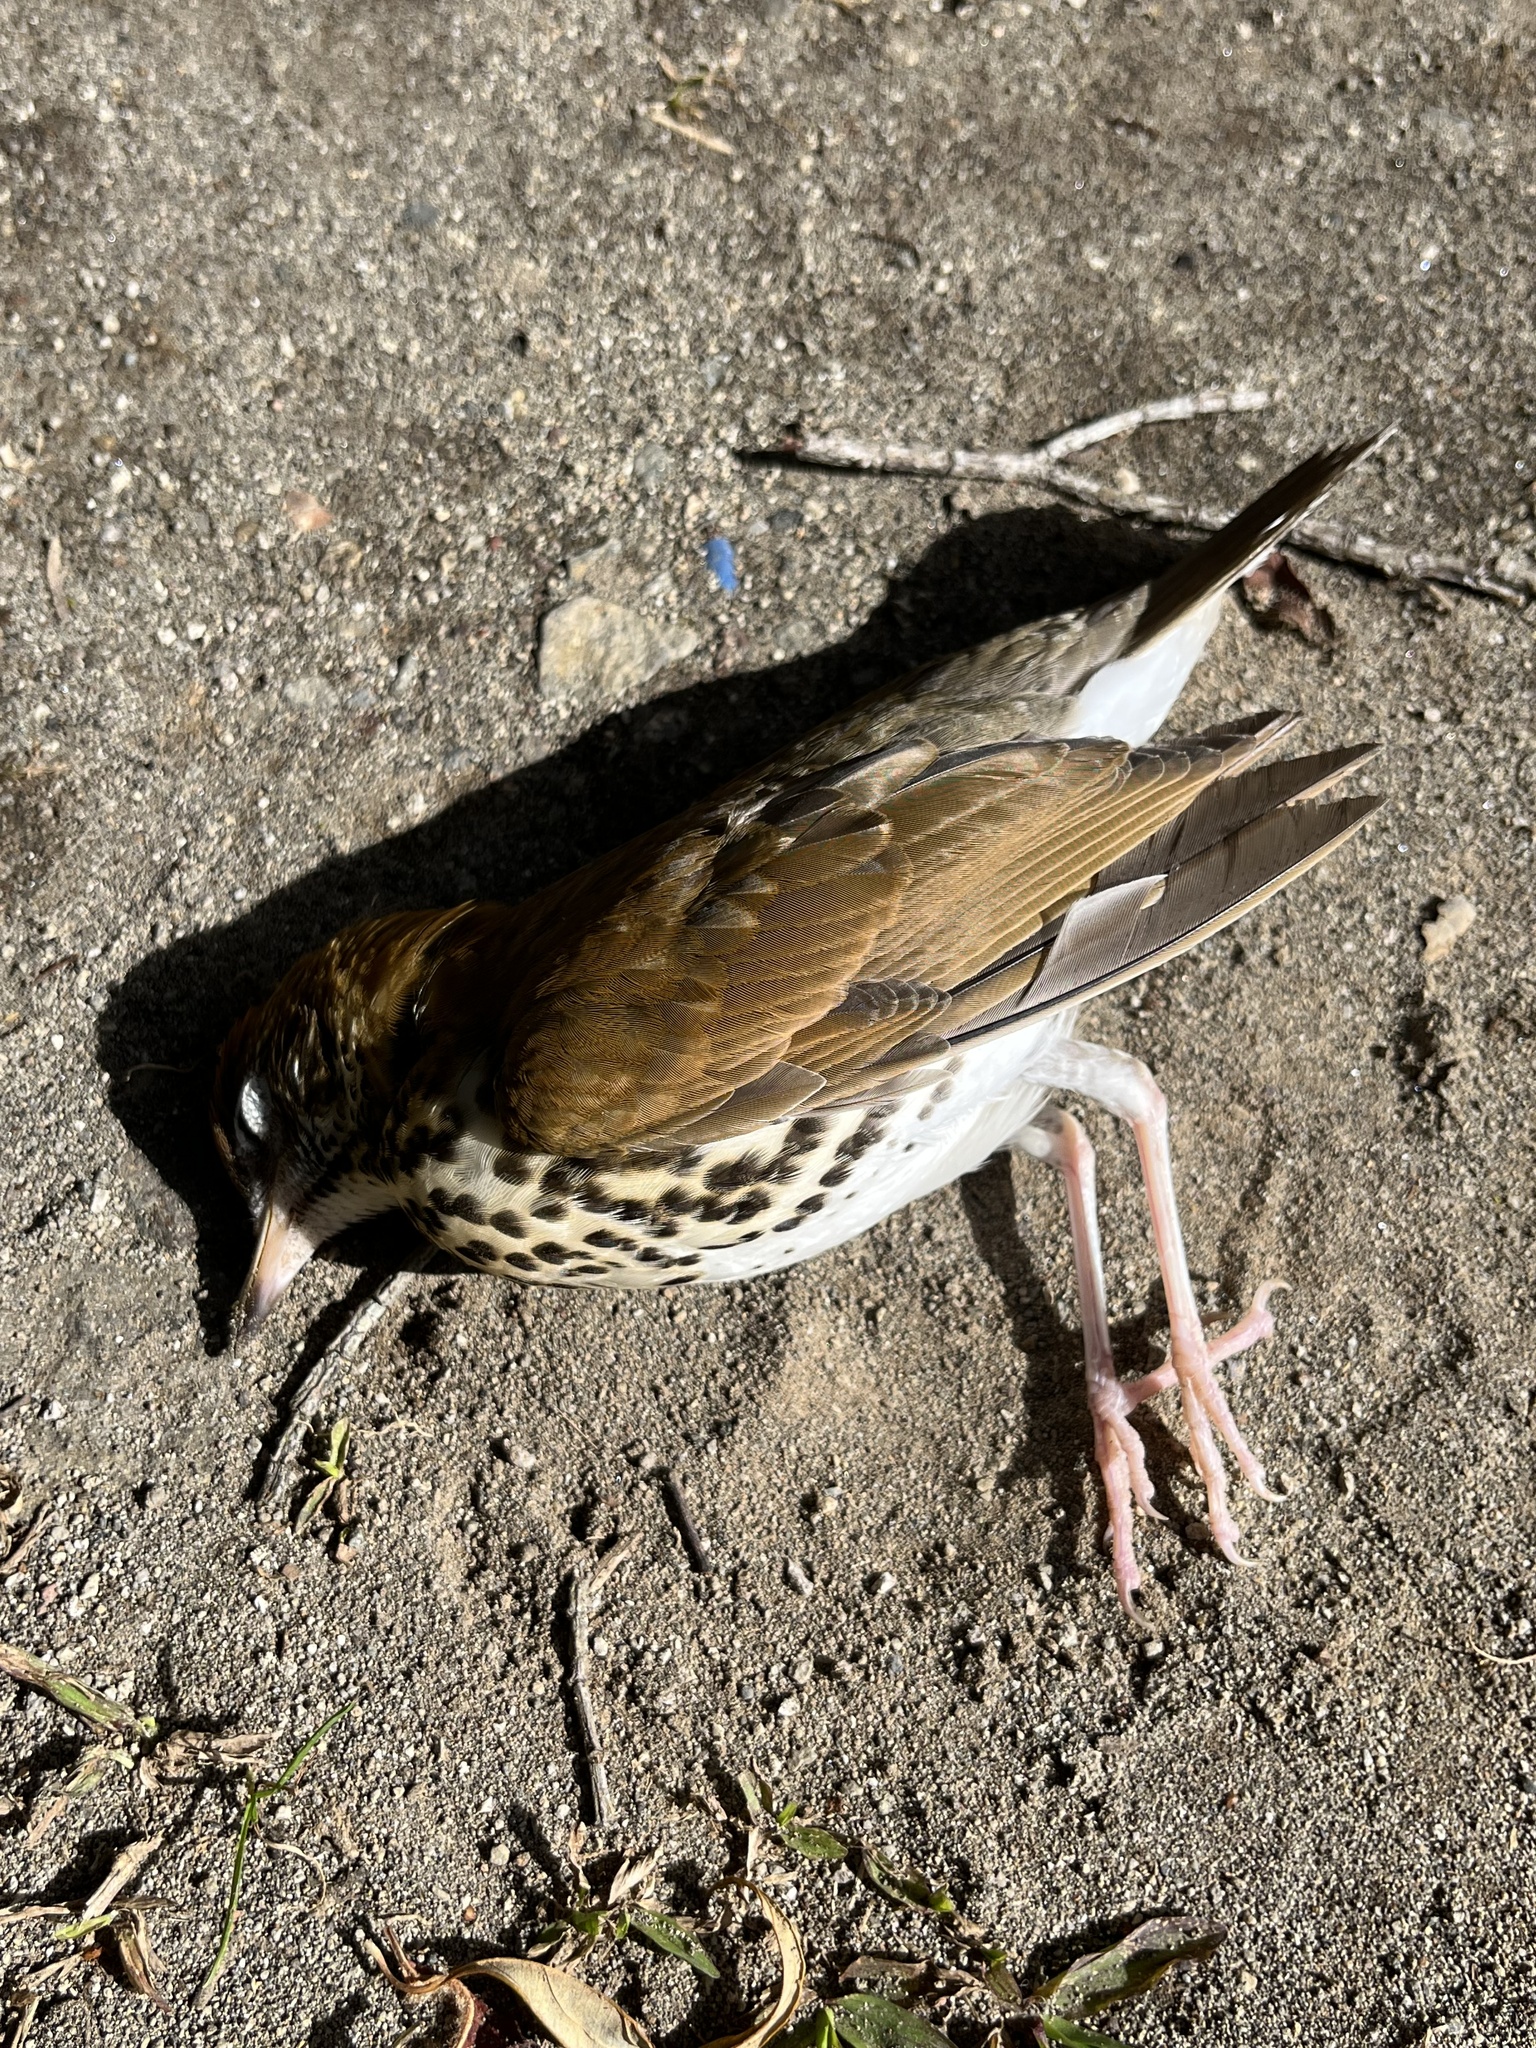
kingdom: Animalia
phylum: Chordata
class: Aves
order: Passeriformes
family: Turdidae
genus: Hylocichla
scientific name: Hylocichla mustelina
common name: Wood thrush
